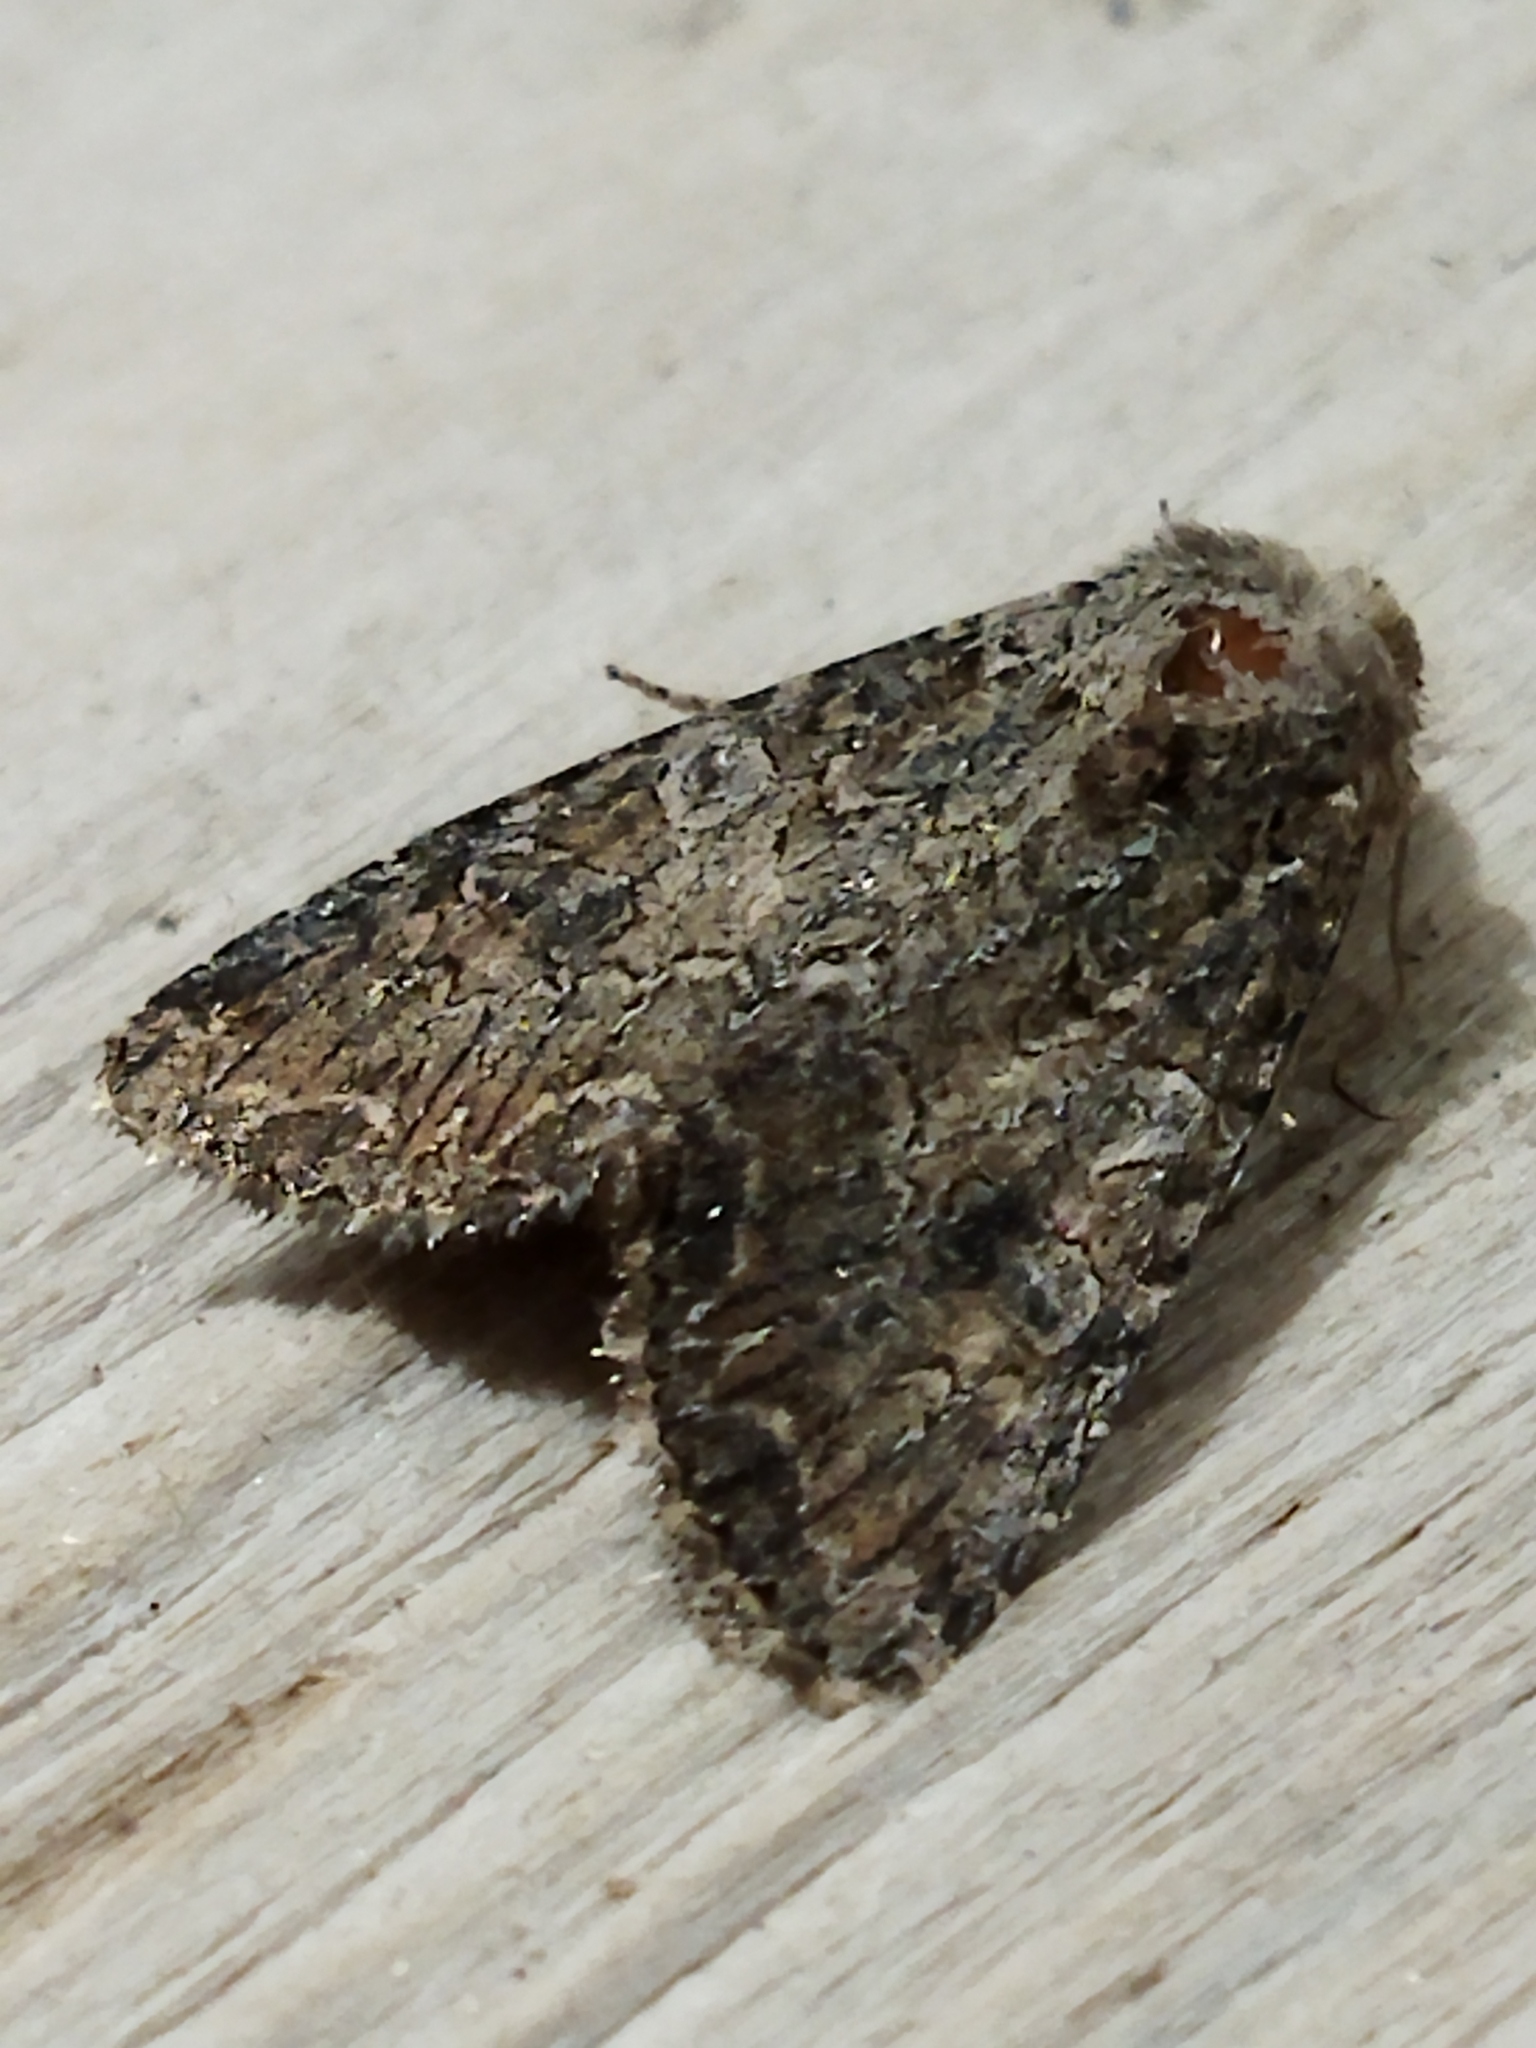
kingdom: Animalia
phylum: Arthropoda
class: Insecta
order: Lepidoptera
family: Noctuidae
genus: Anarta
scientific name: Anarta trifolii
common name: Clover cutworm moth
